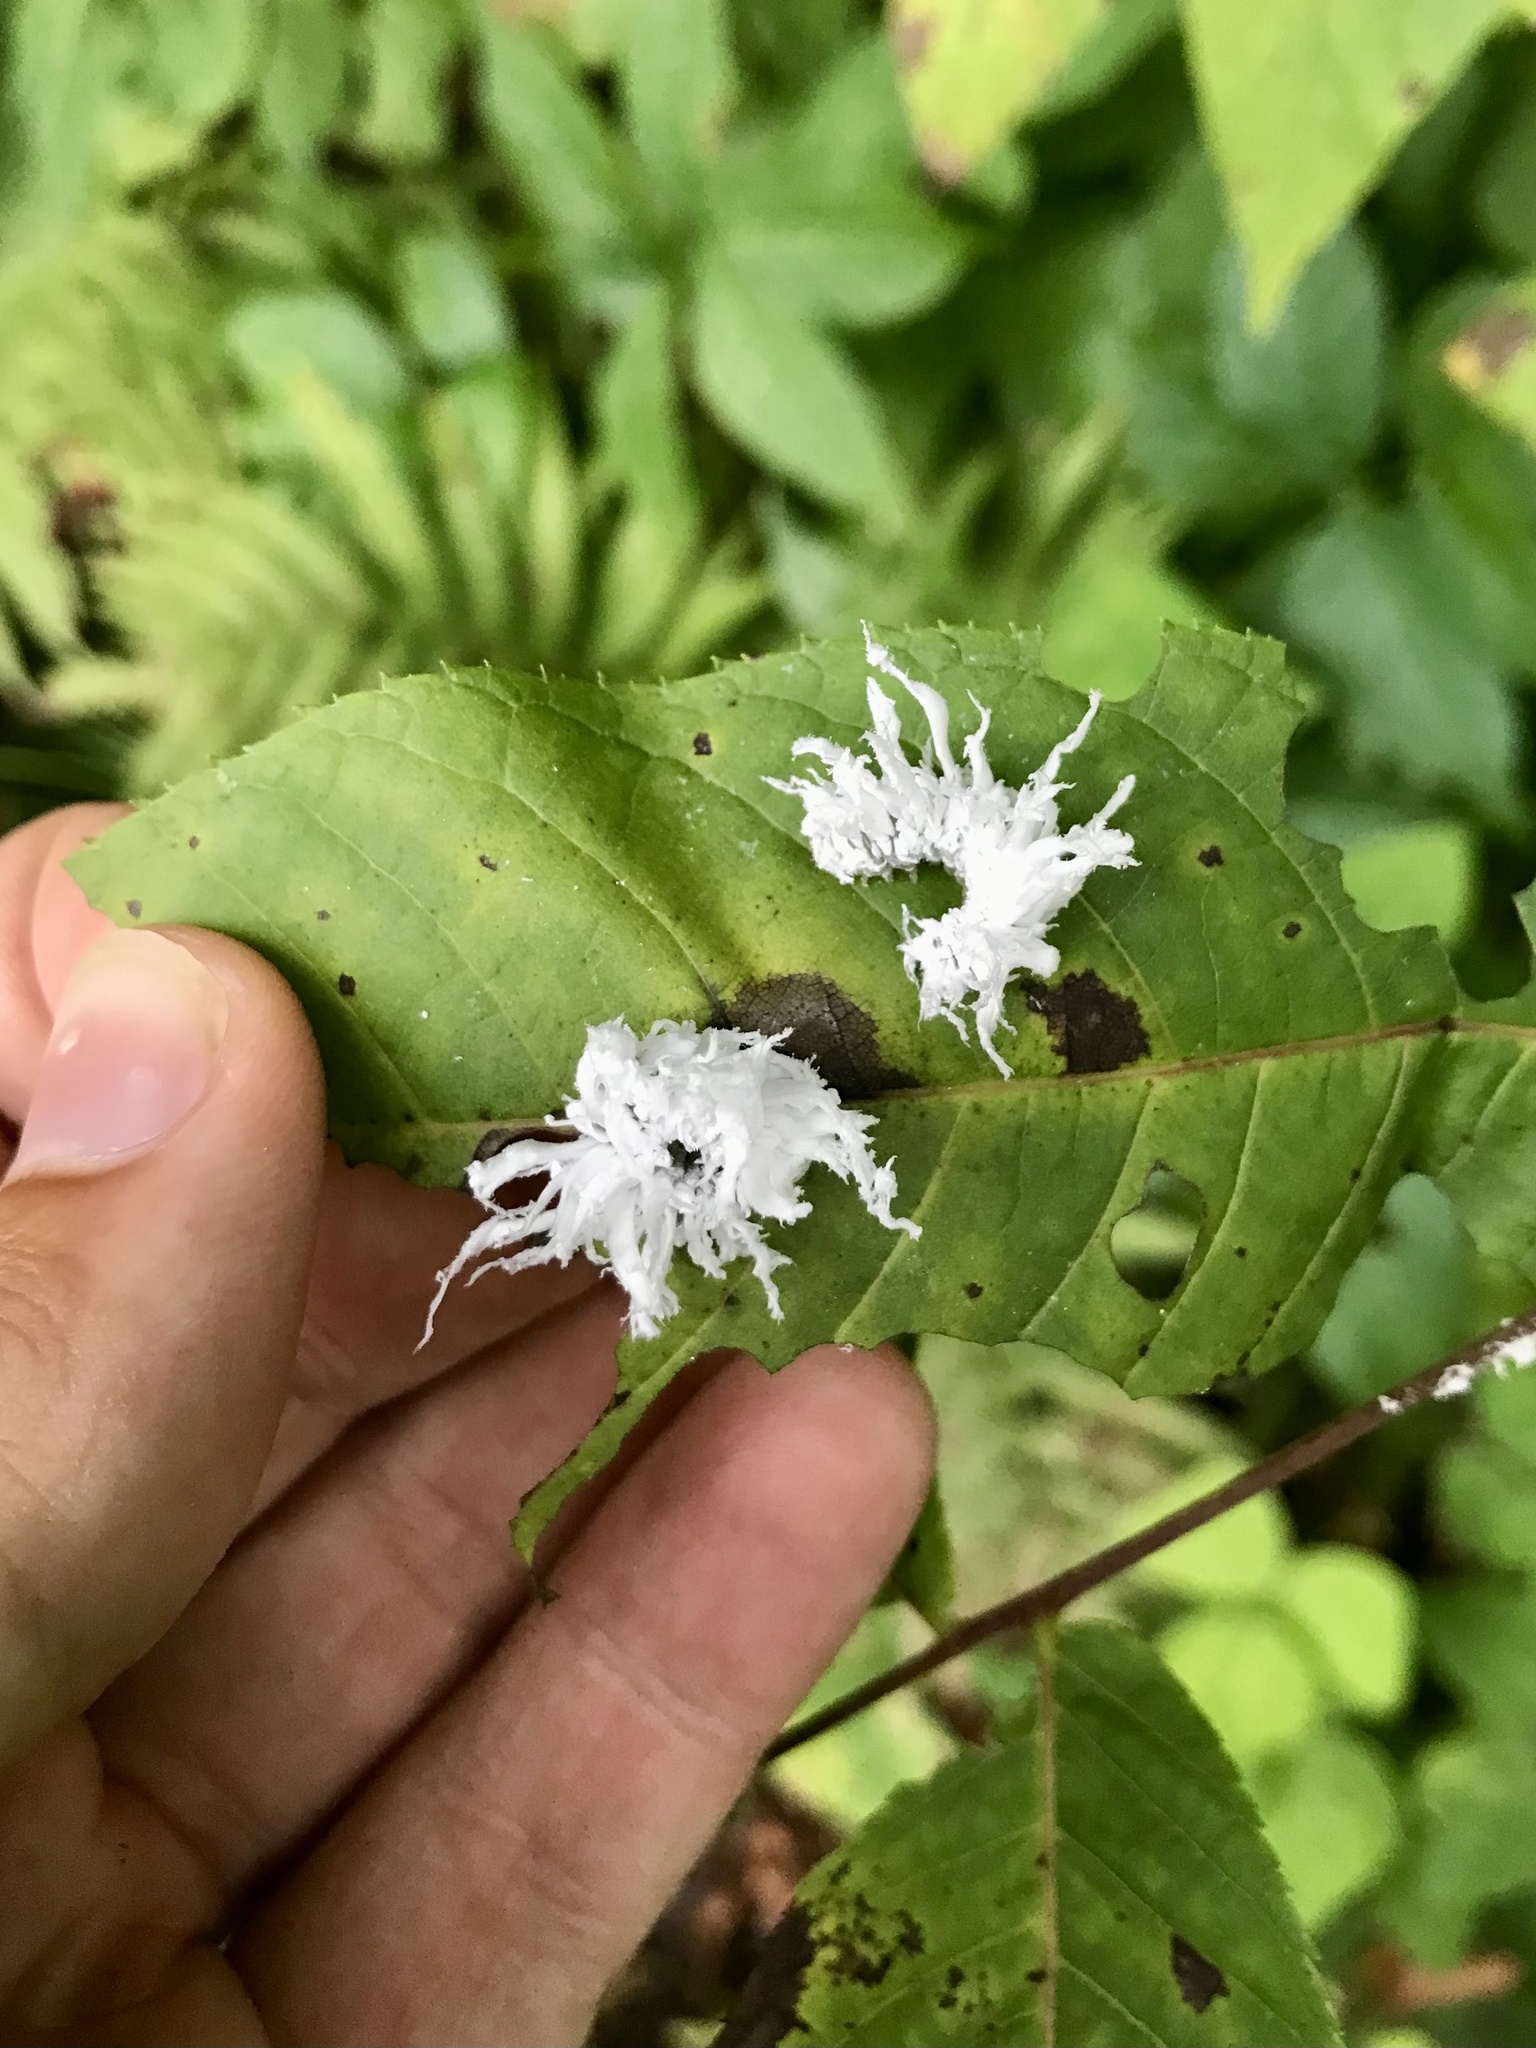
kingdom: Animalia
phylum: Arthropoda
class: Insecta
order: Hymenoptera
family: Tenthredinidae
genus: Eriocampa
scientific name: Eriocampa juglandis
